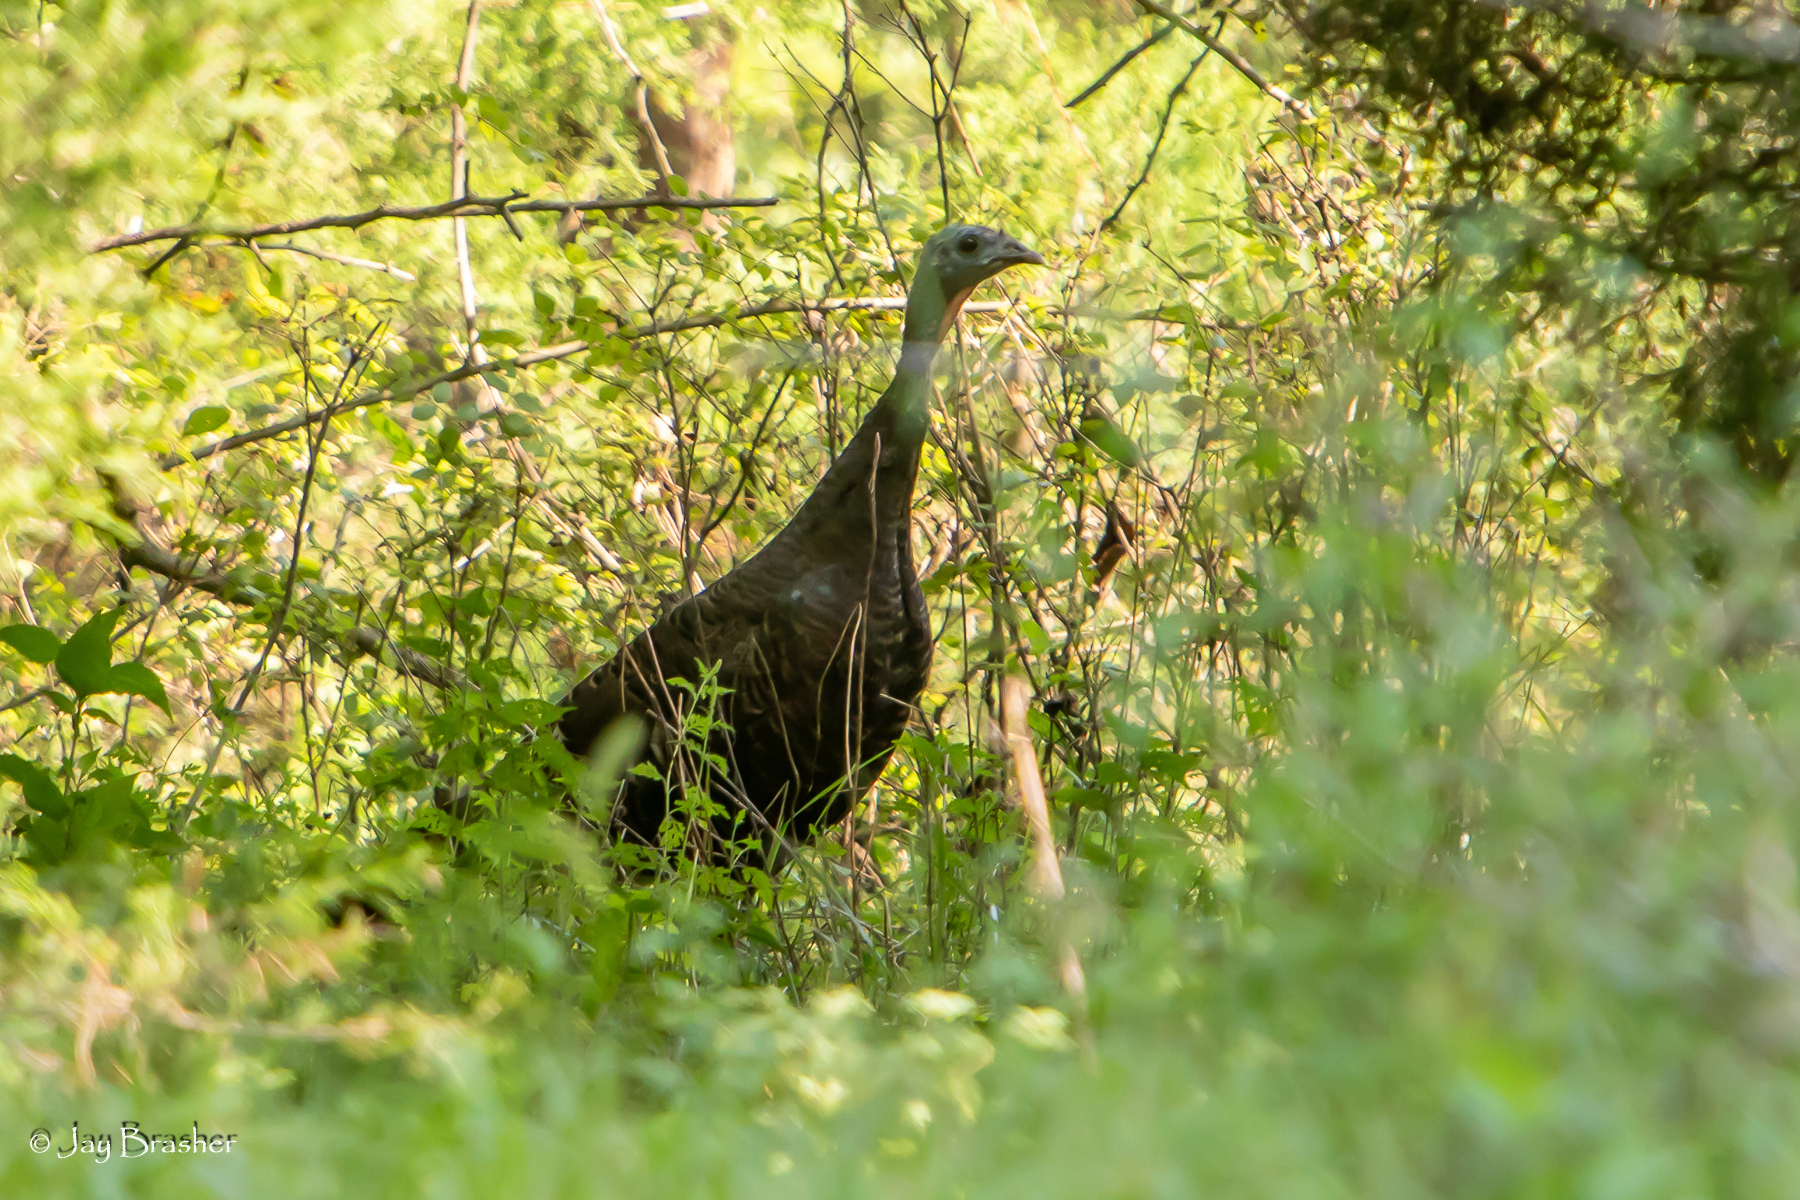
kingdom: Animalia
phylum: Chordata
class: Aves
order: Galliformes
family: Phasianidae
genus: Meleagris
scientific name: Meleagris gallopavo
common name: Wild turkey
